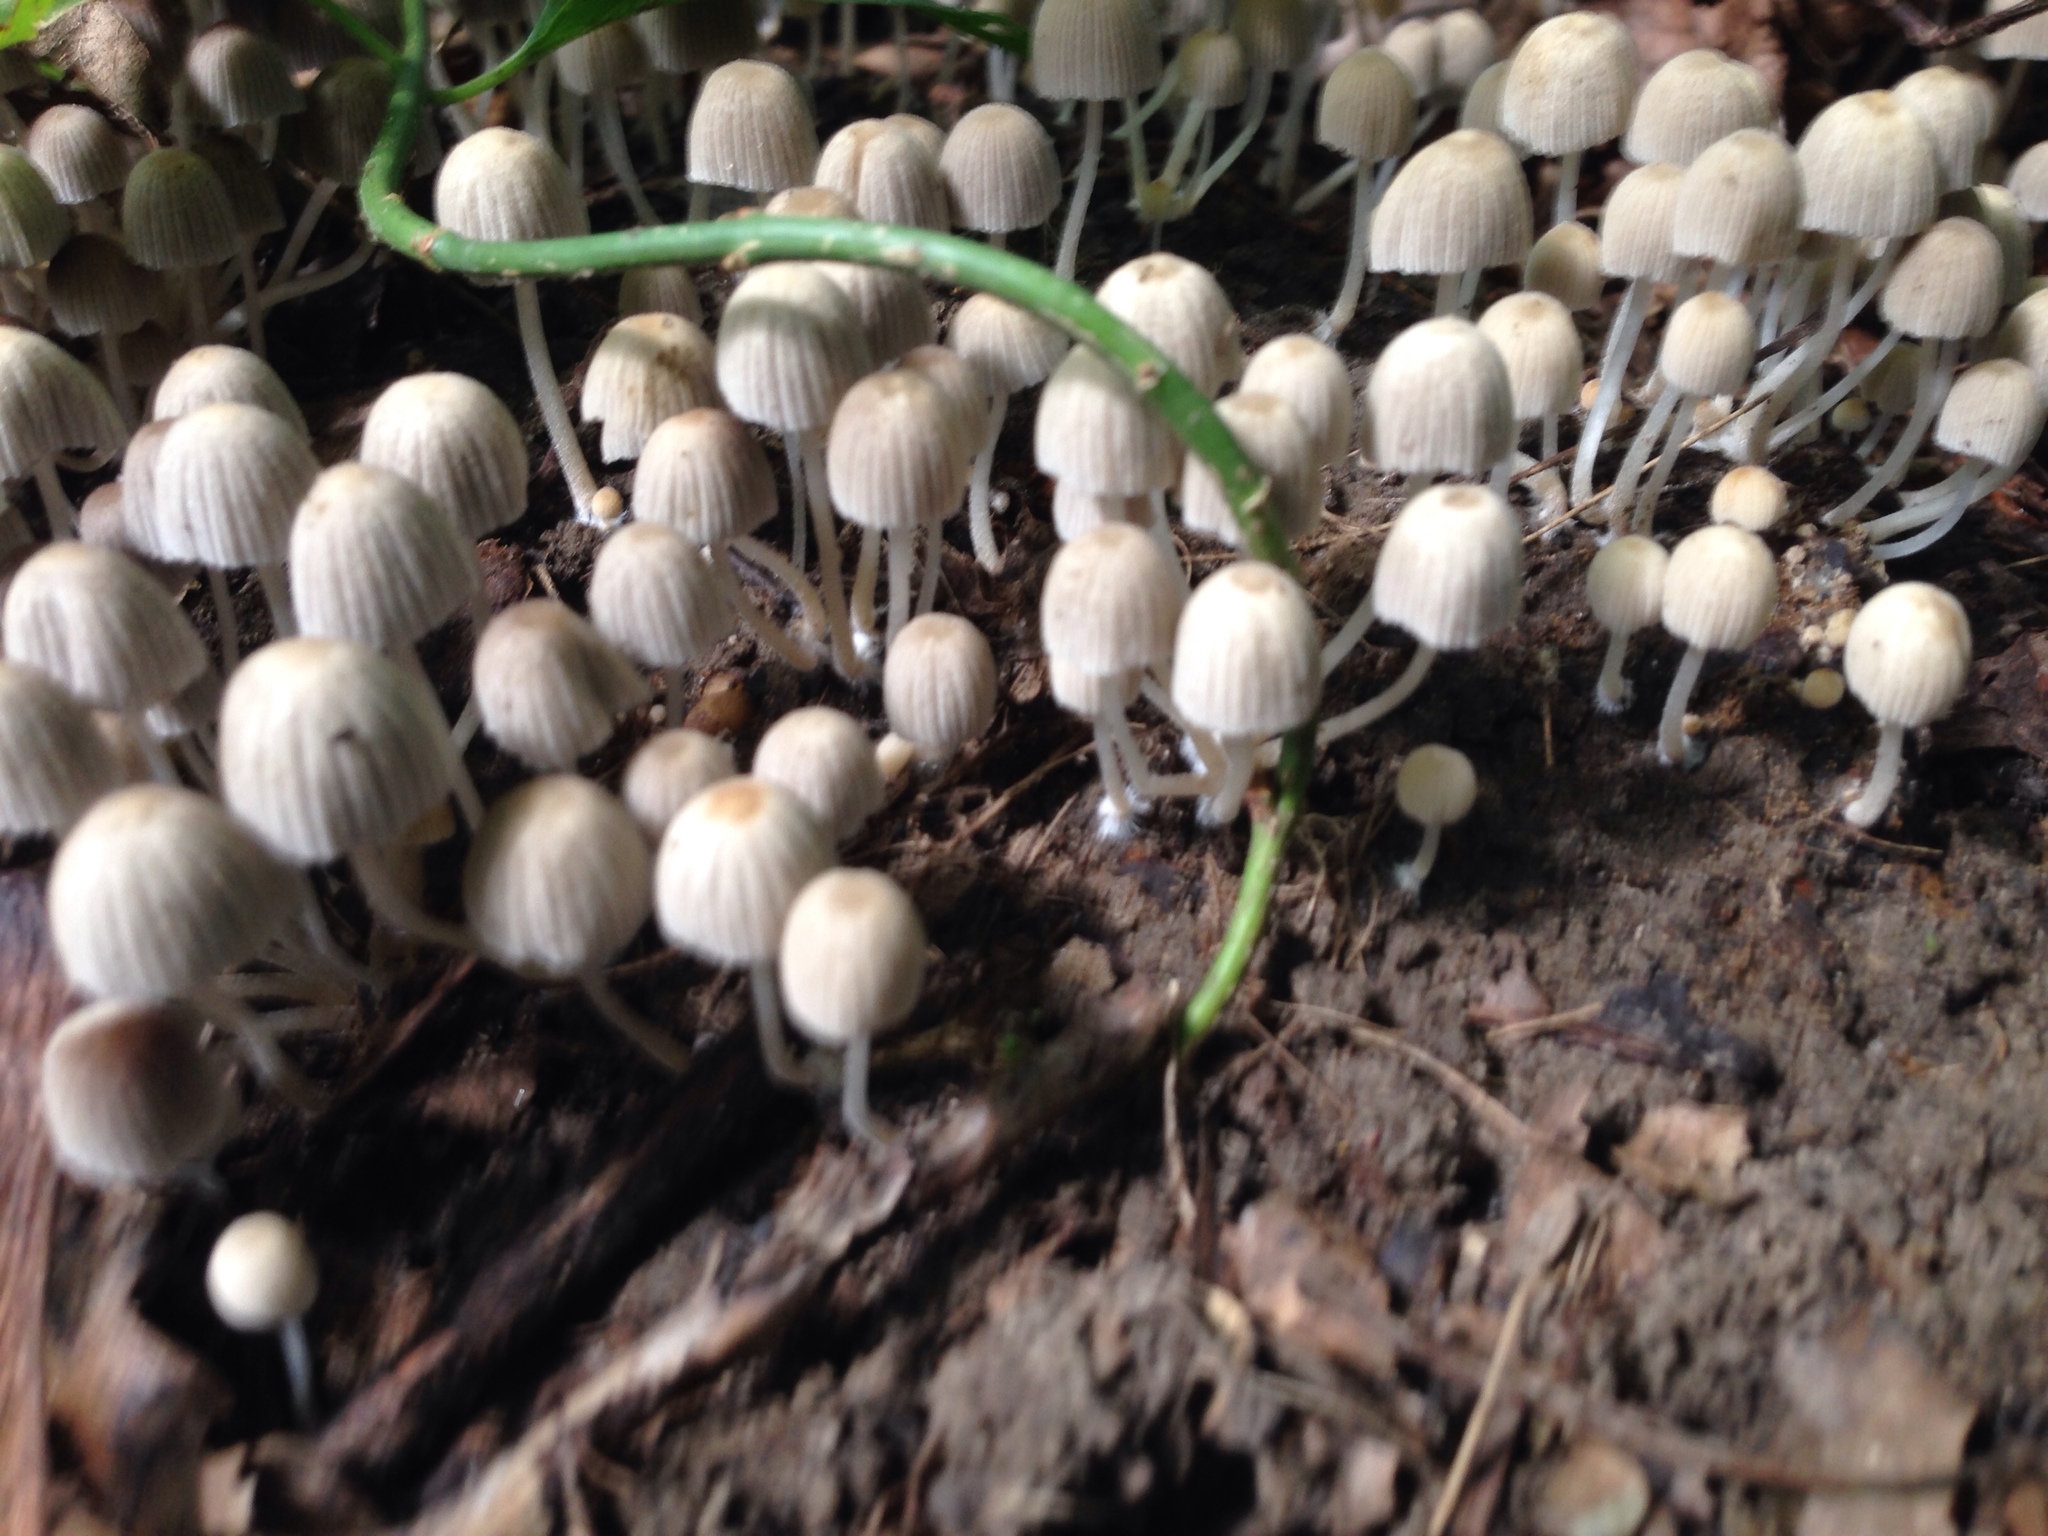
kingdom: Fungi
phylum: Basidiomycota
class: Agaricomycetes
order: Agaricales
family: Psathyrellaceae
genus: Coprinellus
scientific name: Coprinellus disseminatus
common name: Fairies' bonnets
